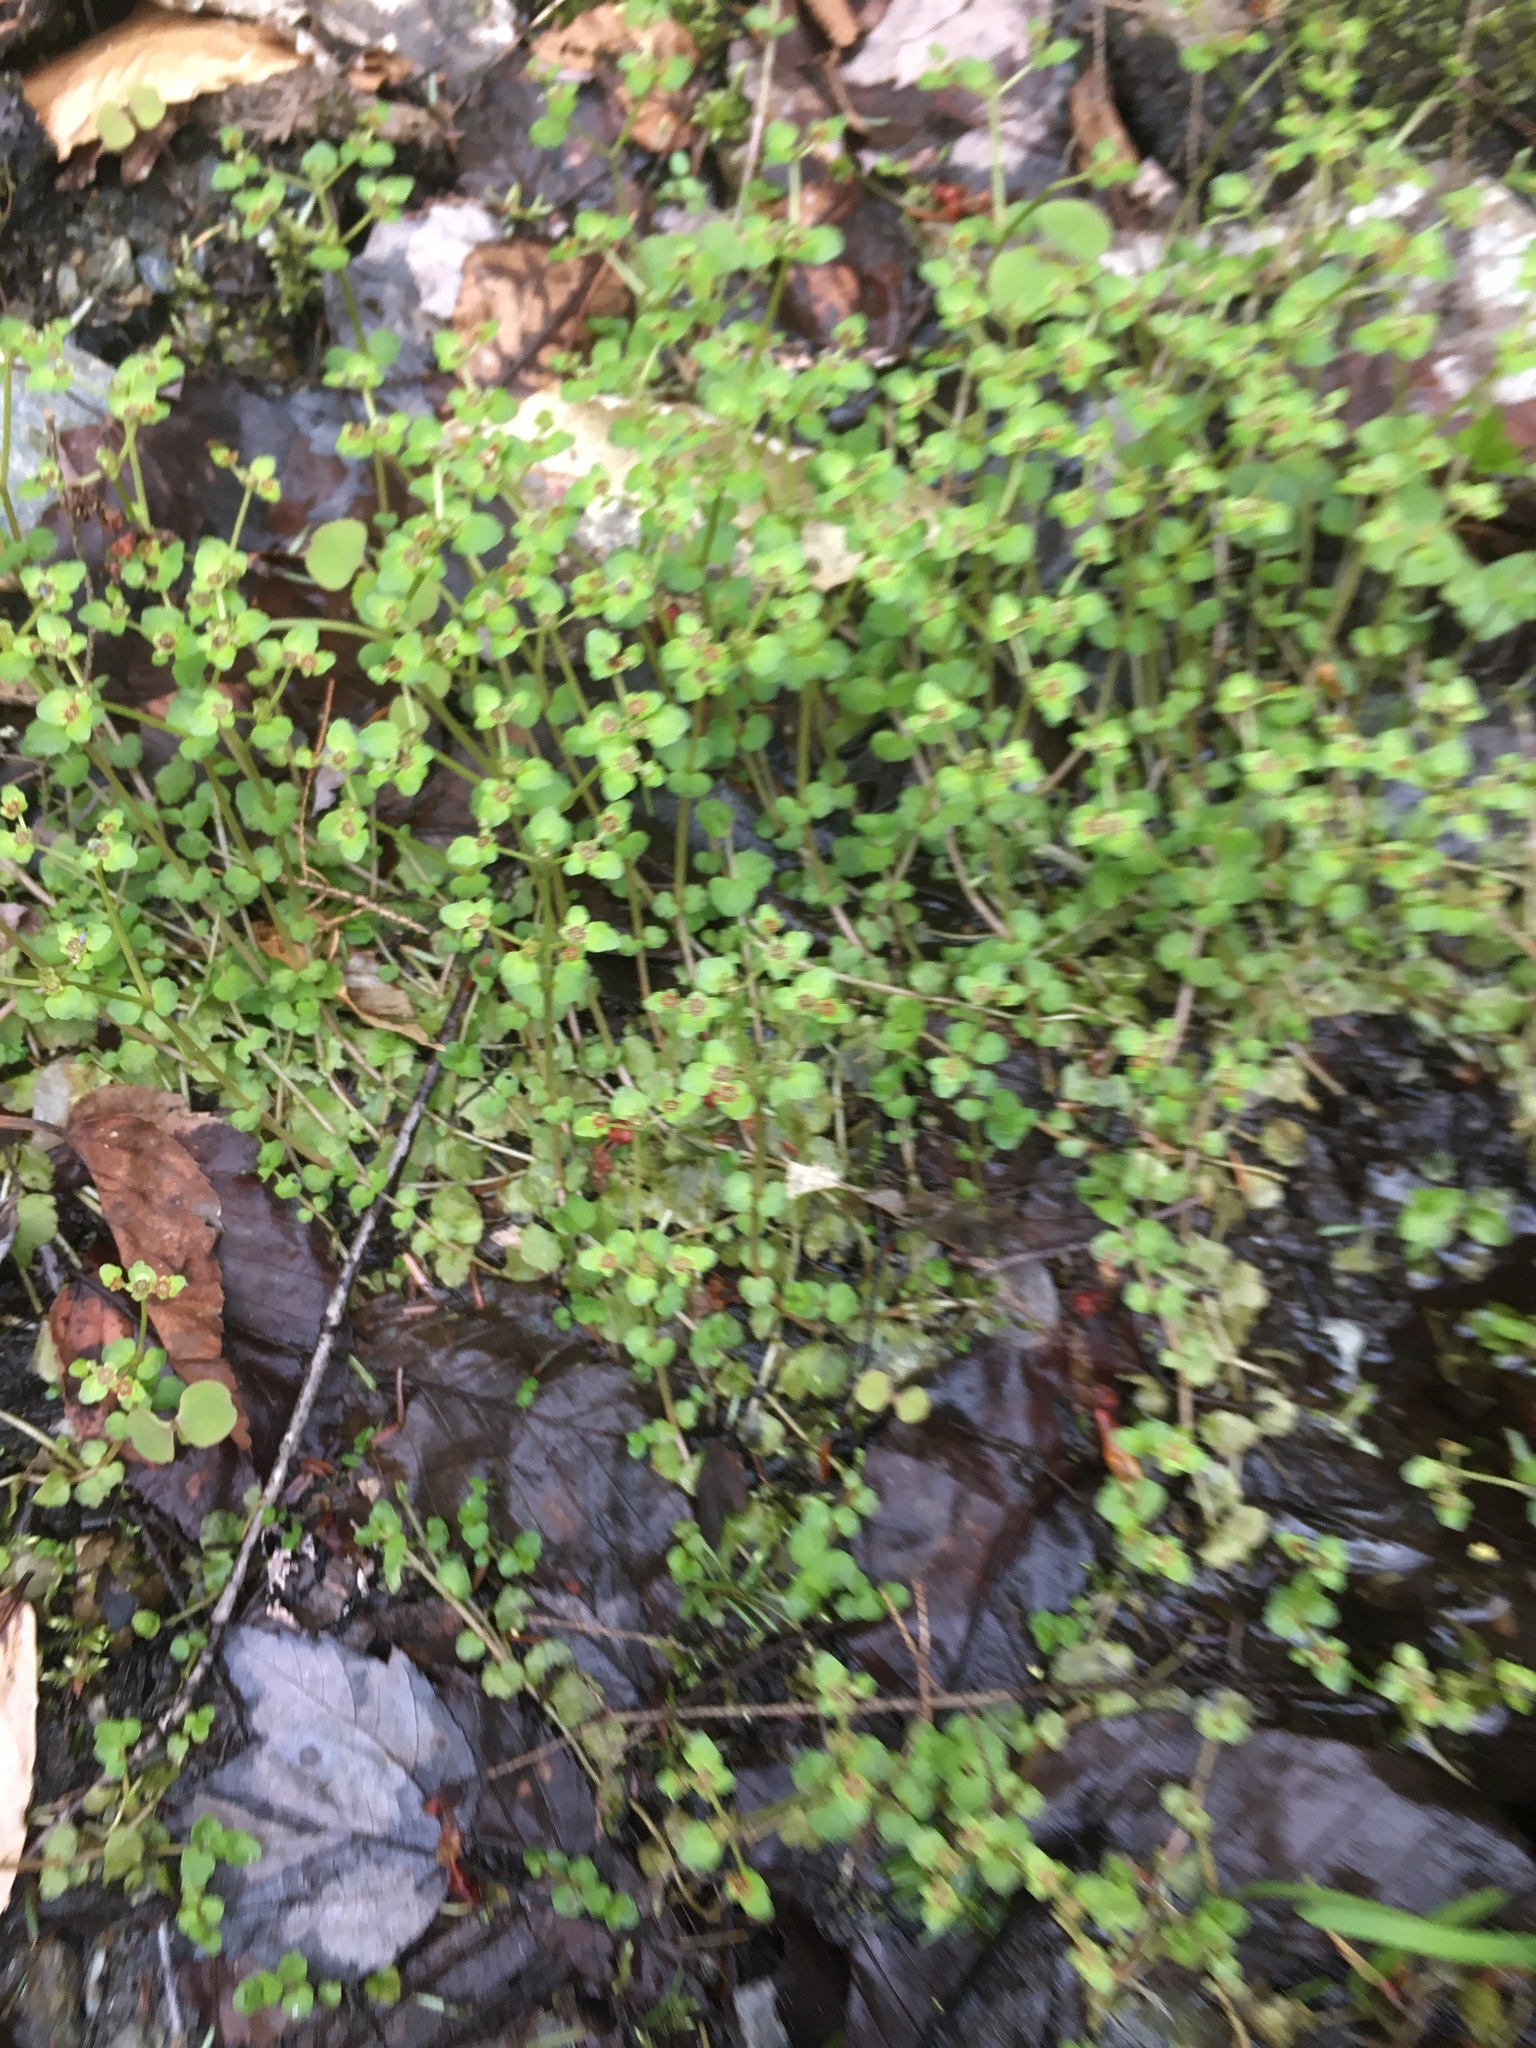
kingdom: Plantae
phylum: Tracheophyta
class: Magnoliopsida
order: Saxifragales
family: Saxifragaceae
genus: Chrysosplenium
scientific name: Chrysosplenium americanum
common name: American golden-saxifrage
